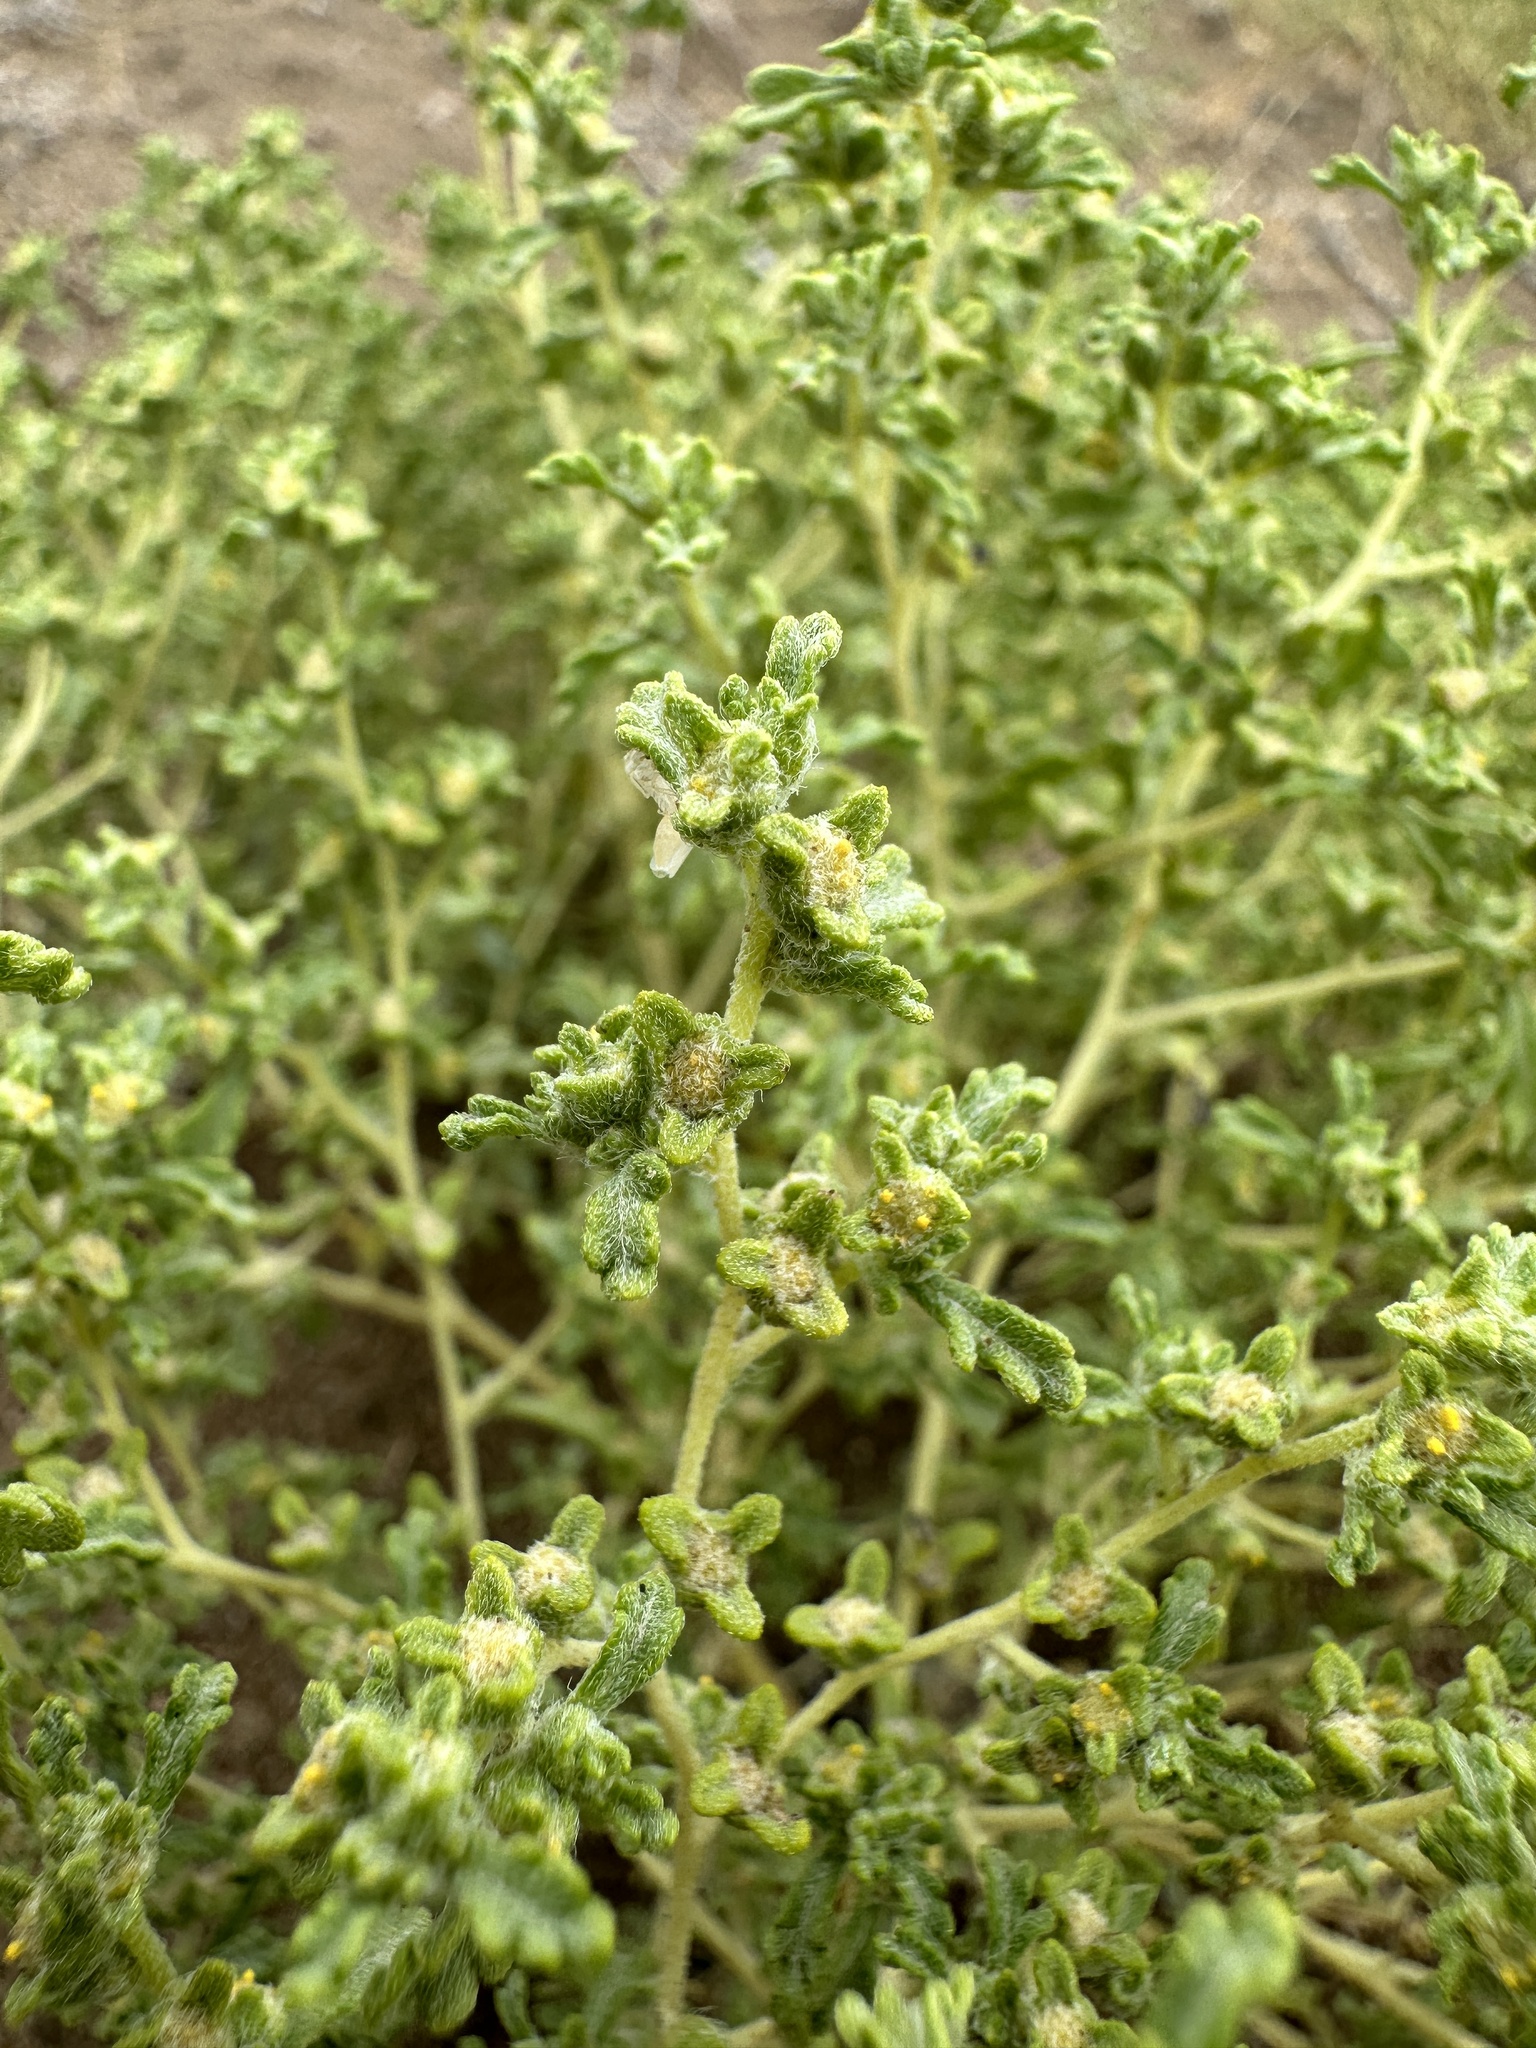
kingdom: Plantae
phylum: Tracheophyta
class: Magnoliopsida
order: Asterales
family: Asteraceae
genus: Euphrosyne
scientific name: Euphrosyne nevadensis
